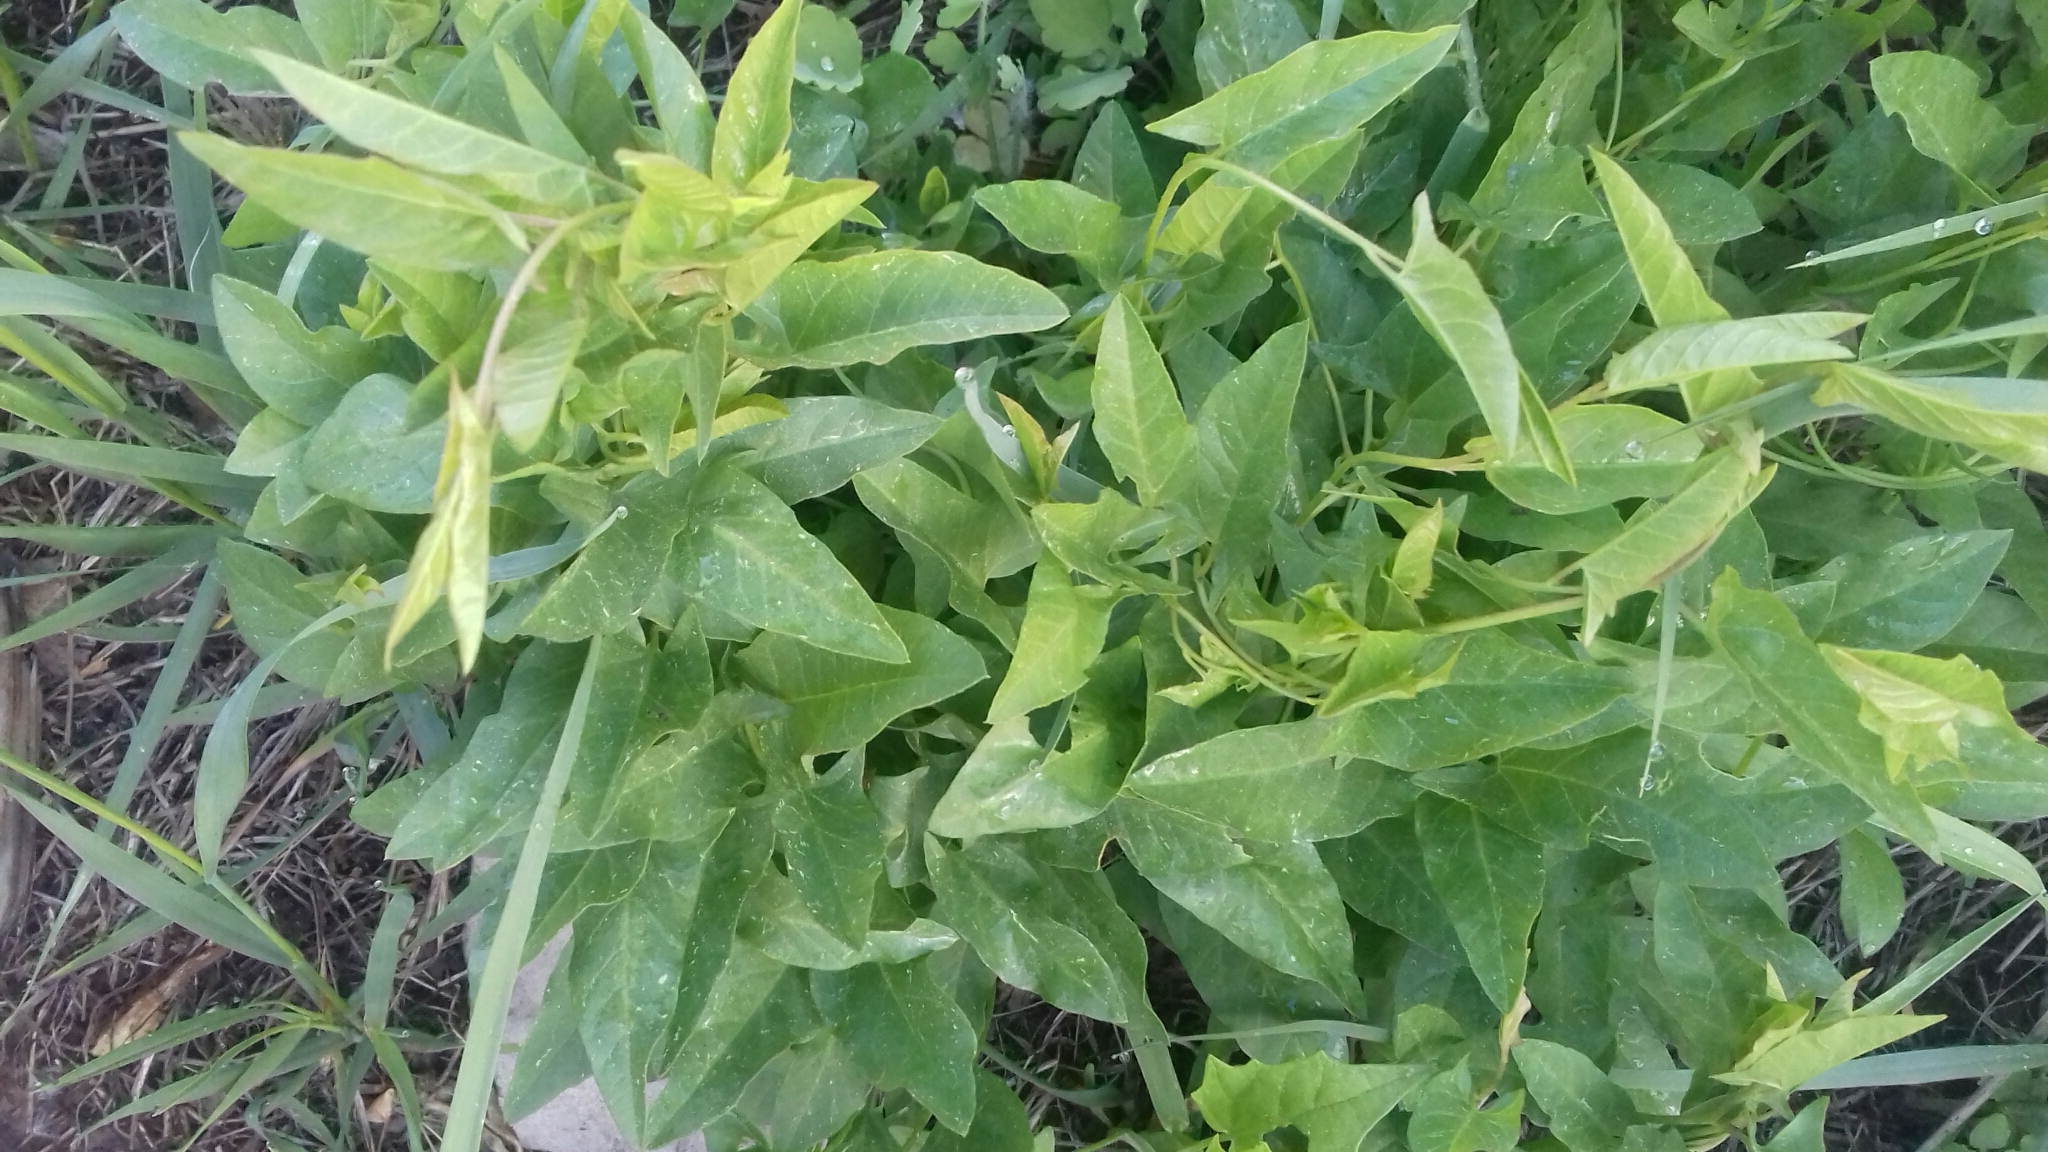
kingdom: Plantae
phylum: Tracheophyta
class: Magnoliopsida
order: Solanales
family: Convolvulaceae
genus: Convolvulus
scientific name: Convolvulus arvensis
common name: Field bindweed
